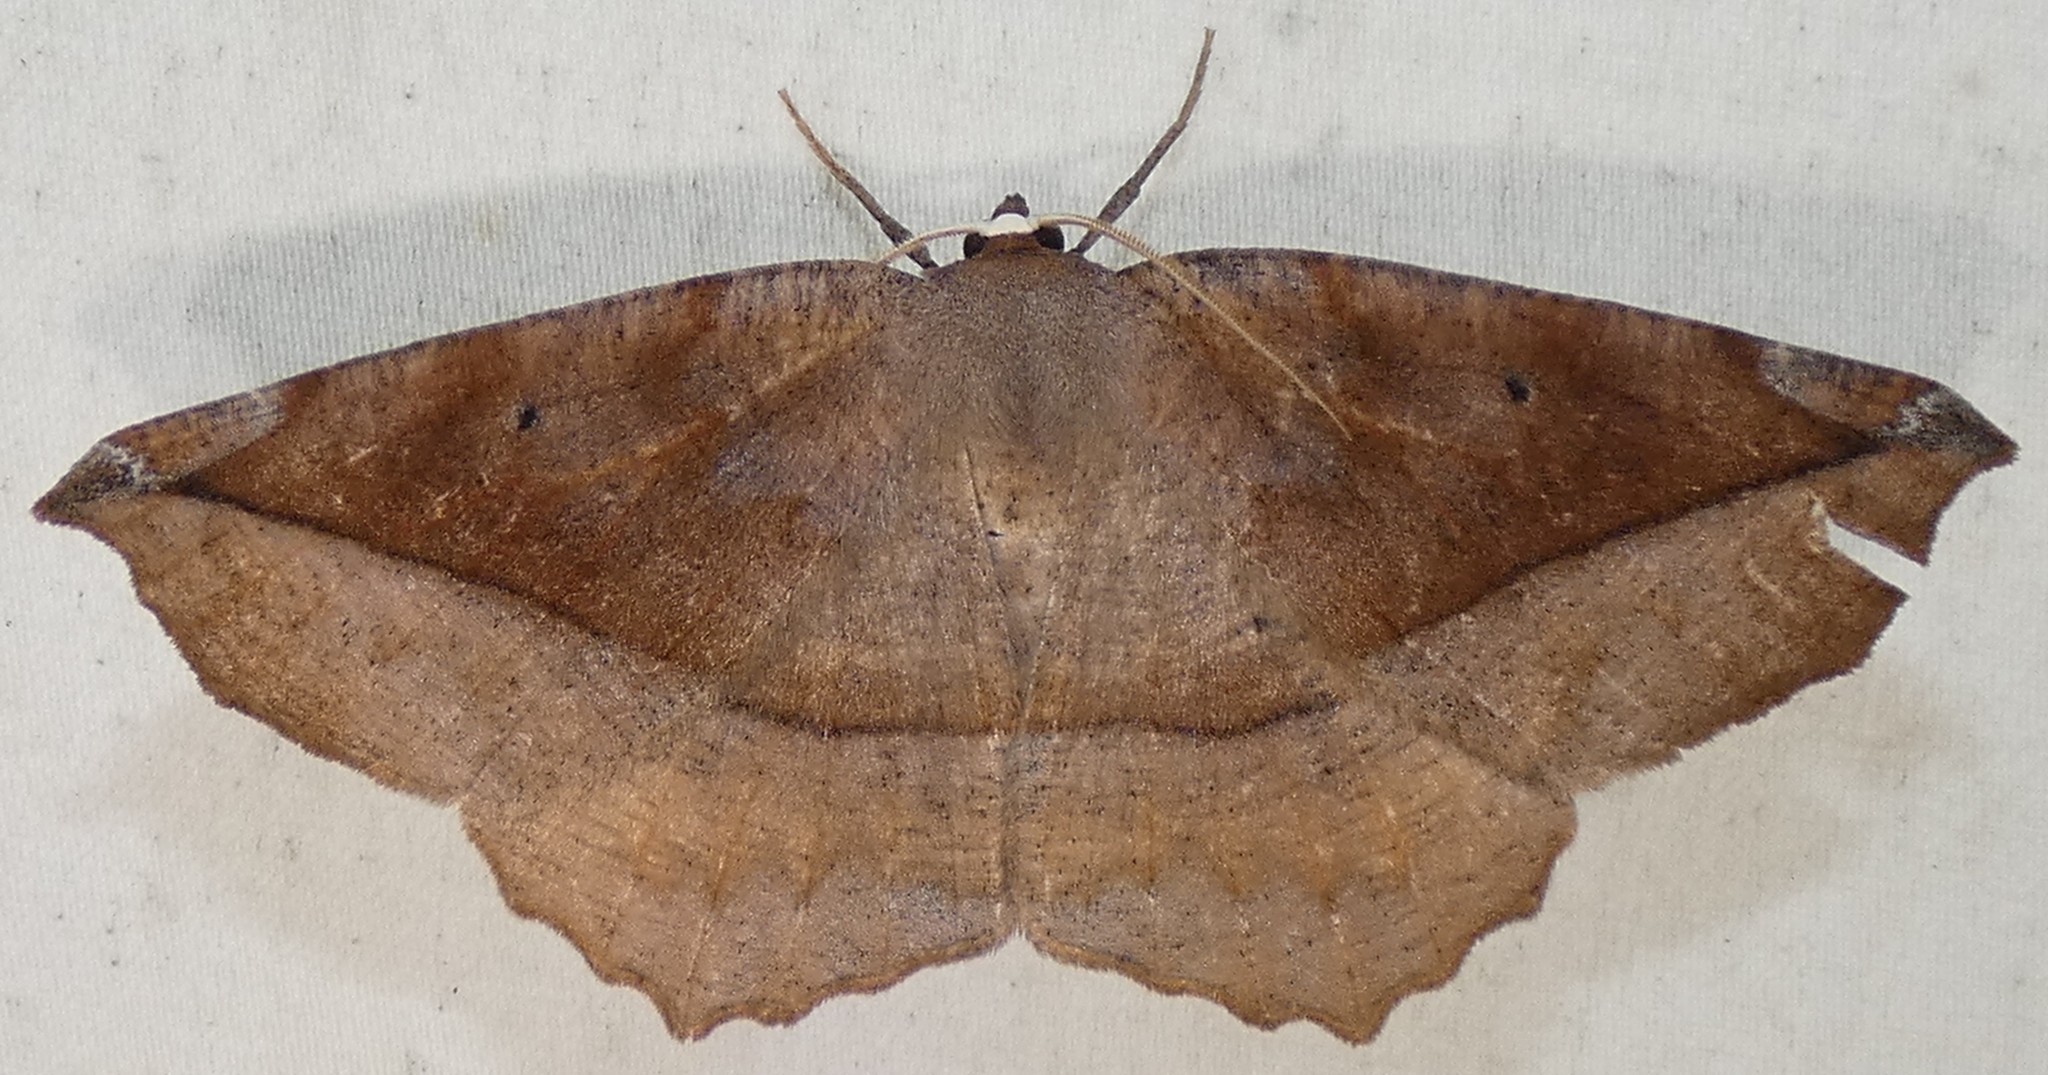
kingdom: Animalia
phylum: Arthropoda
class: Insecta
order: Lepidoptera
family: Geometridae
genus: Eutrapela
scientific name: Eutrapela clemataria
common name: Curved-toothed geometer
